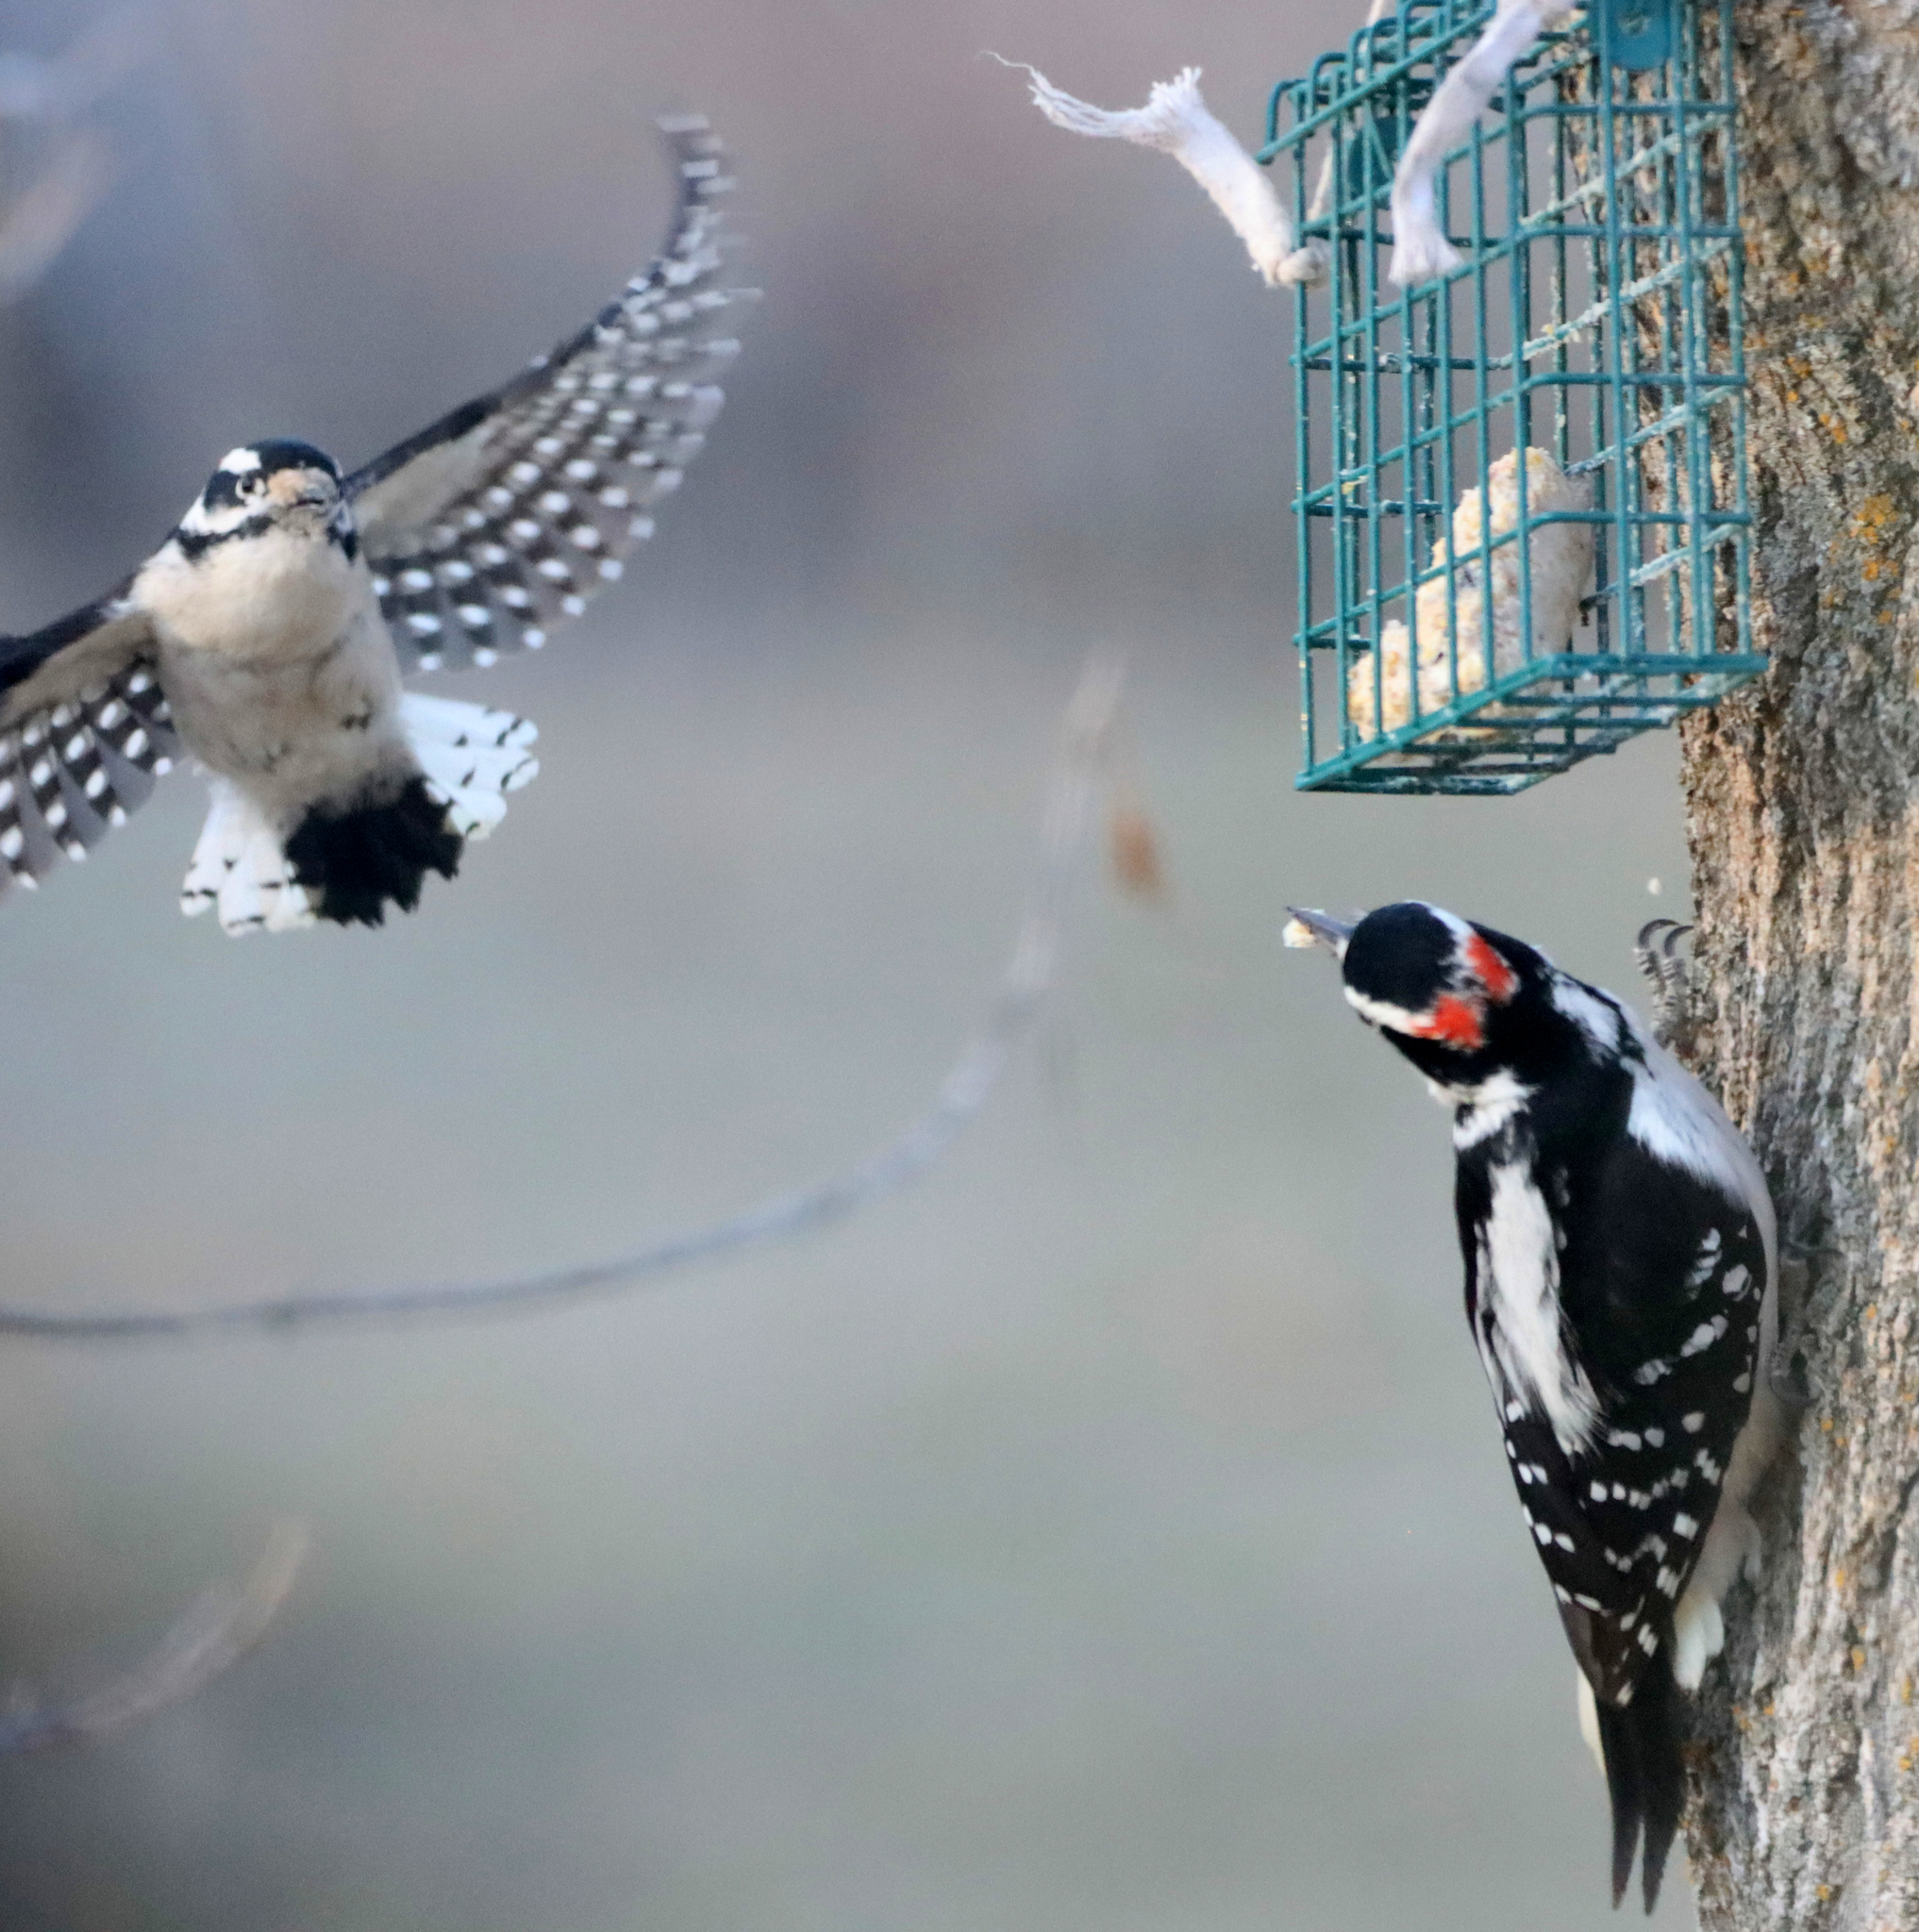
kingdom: Animalia
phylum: Chordata
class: Aves
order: Piciformes
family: Picidae
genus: Dryobates
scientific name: Dryobates pubescens
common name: Downy woodpecker
